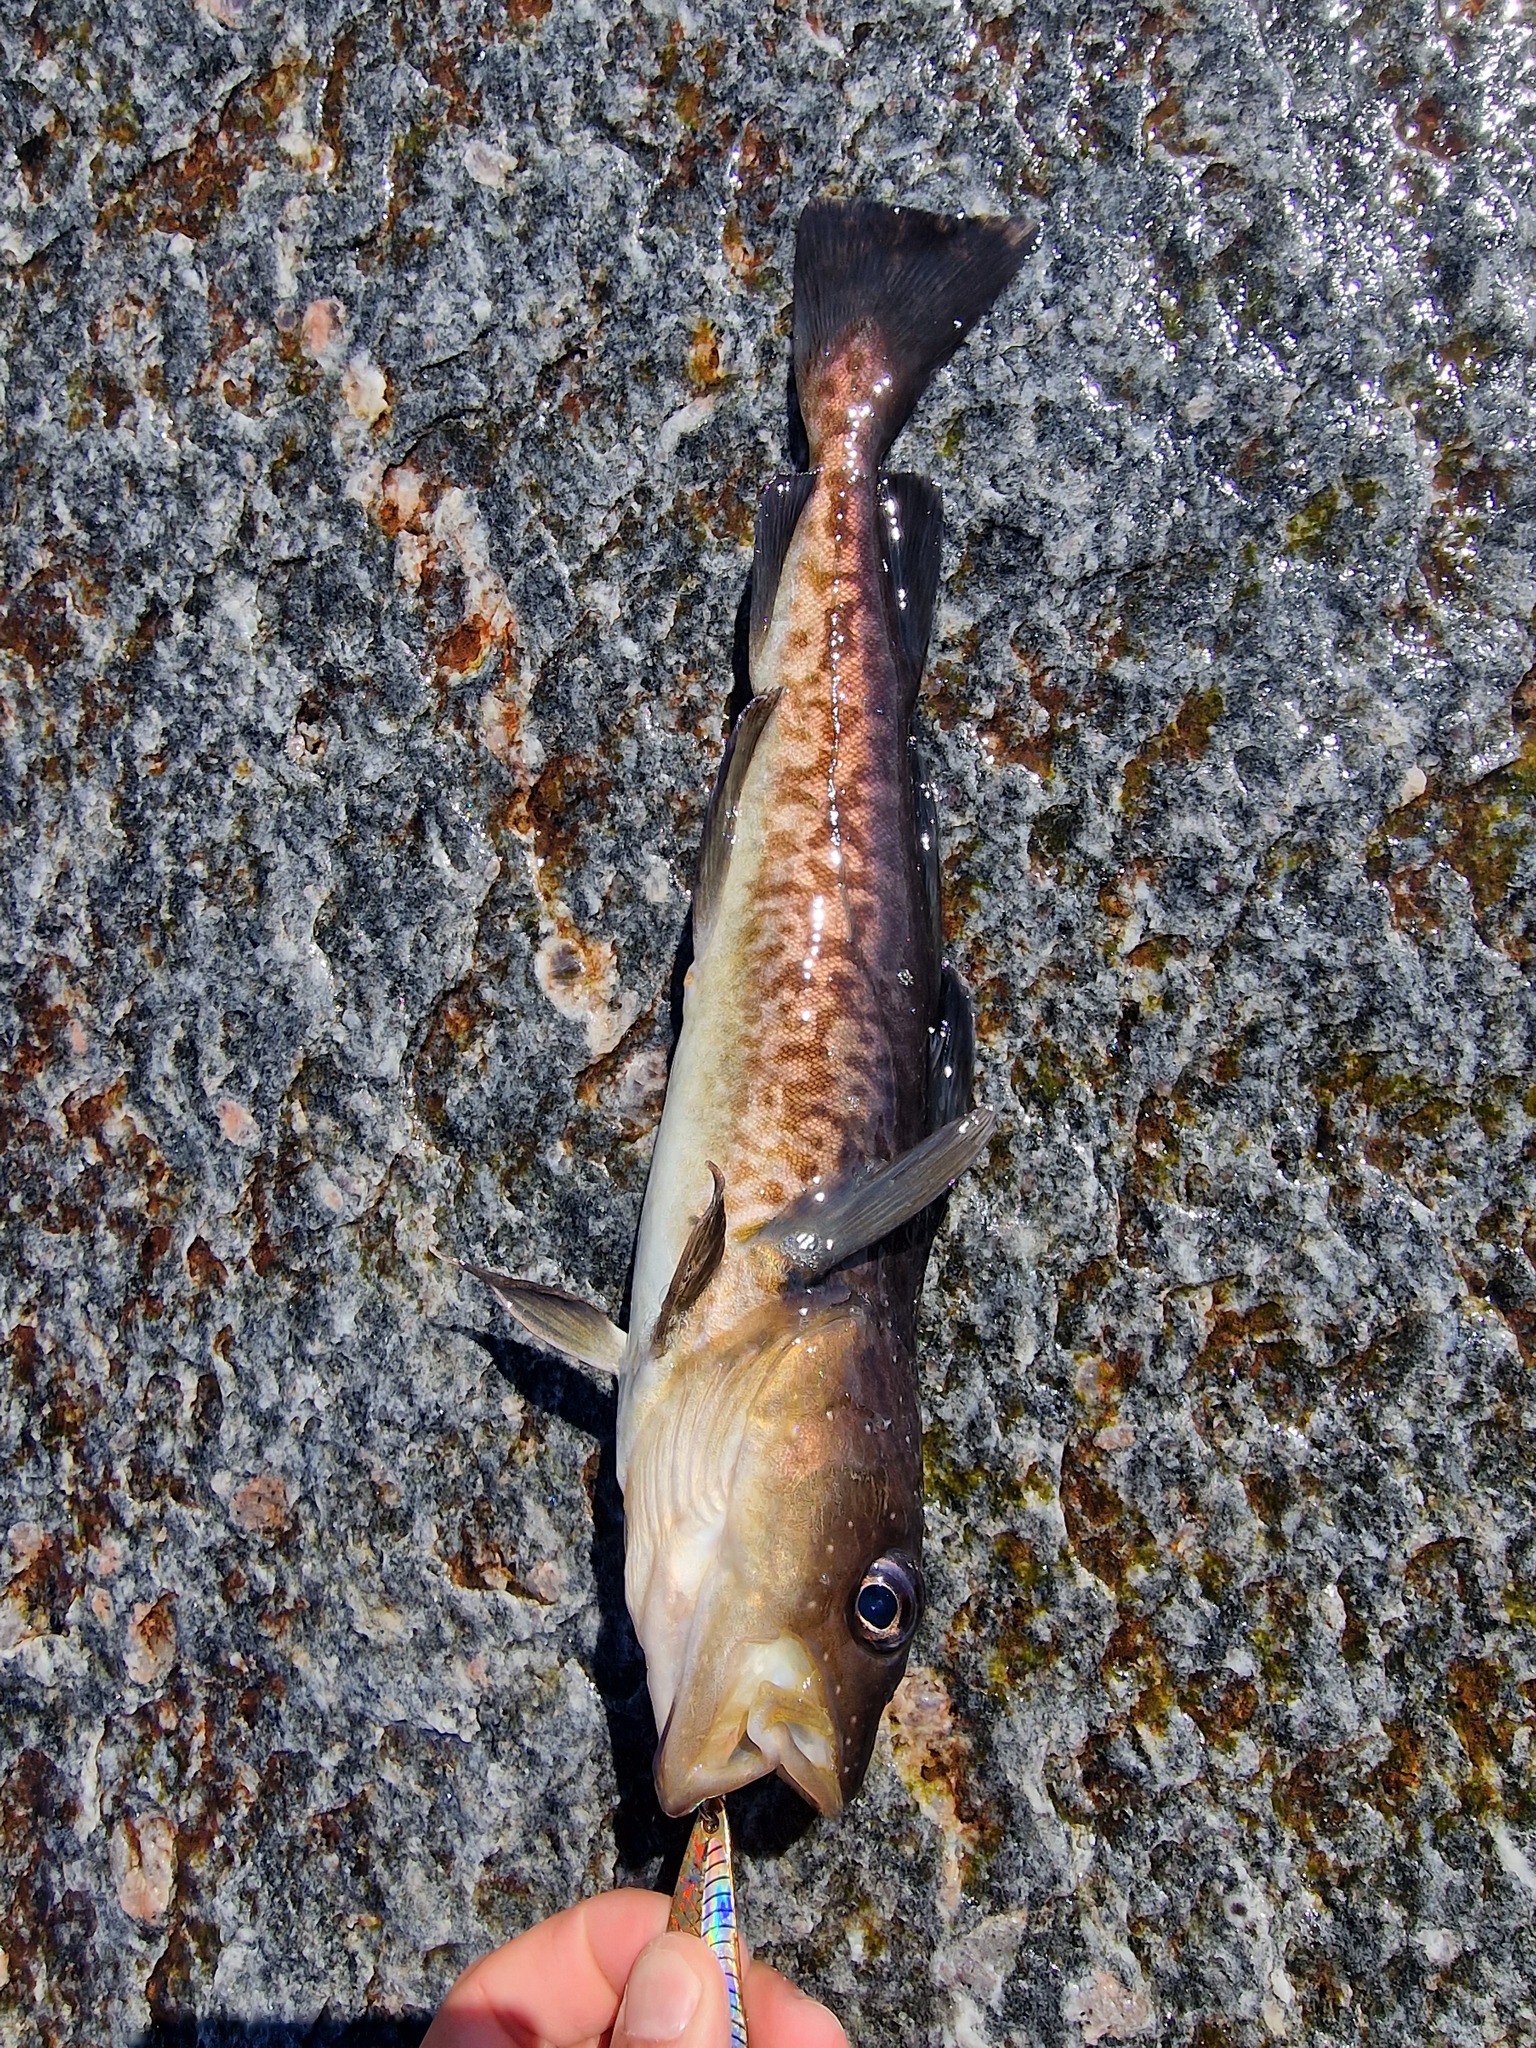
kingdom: Animalia
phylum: Chordata
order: Gadiformes
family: Gadidae
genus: Gadus
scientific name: Gadus macrocephalus
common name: Pacific cod
